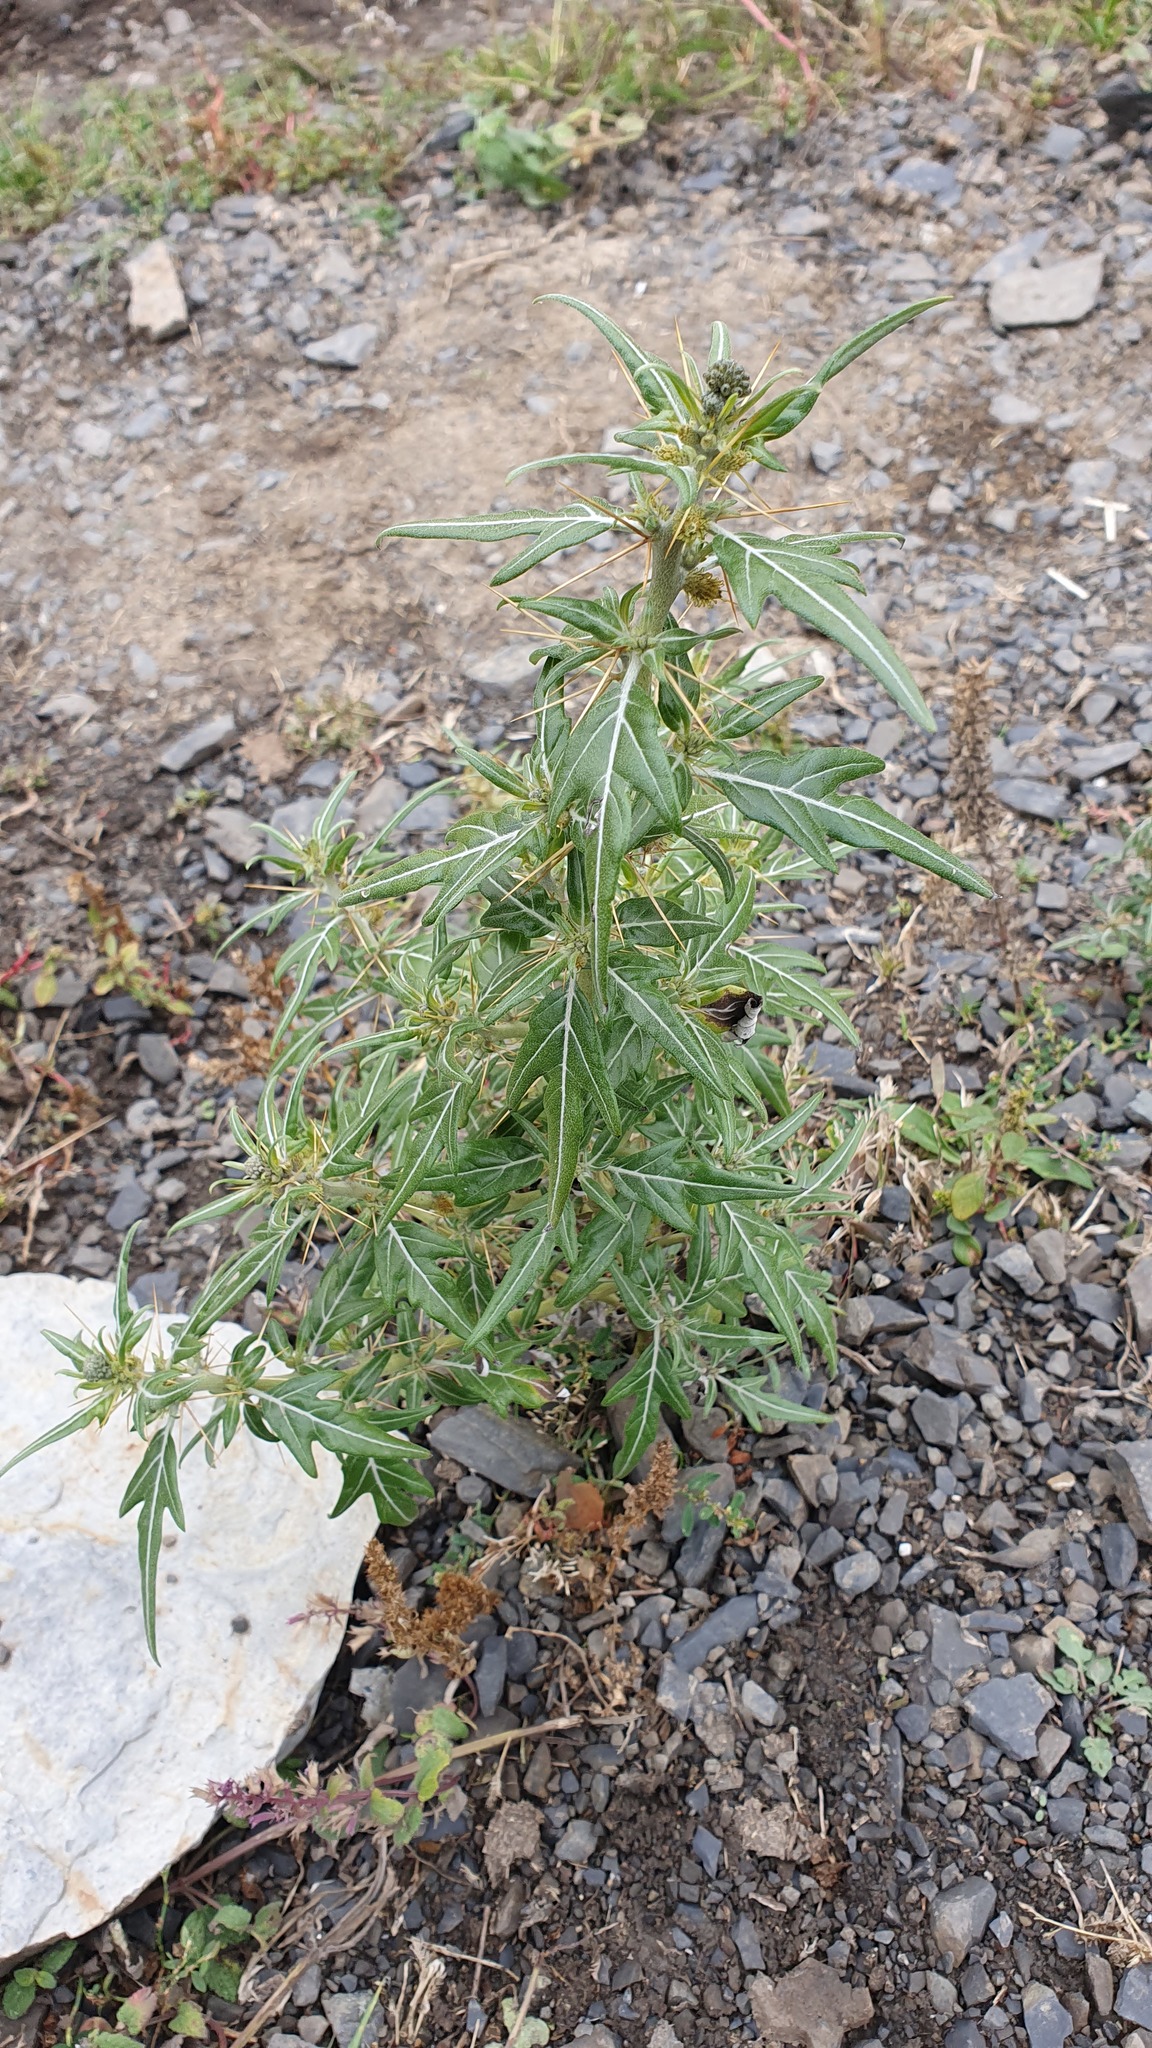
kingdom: Plantae
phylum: Tracheophyta
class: Magnoliopsida
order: Asterales
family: Asteraceae
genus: Xanthium
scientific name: Xanthium spinosum
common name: Spiny cocklebur
